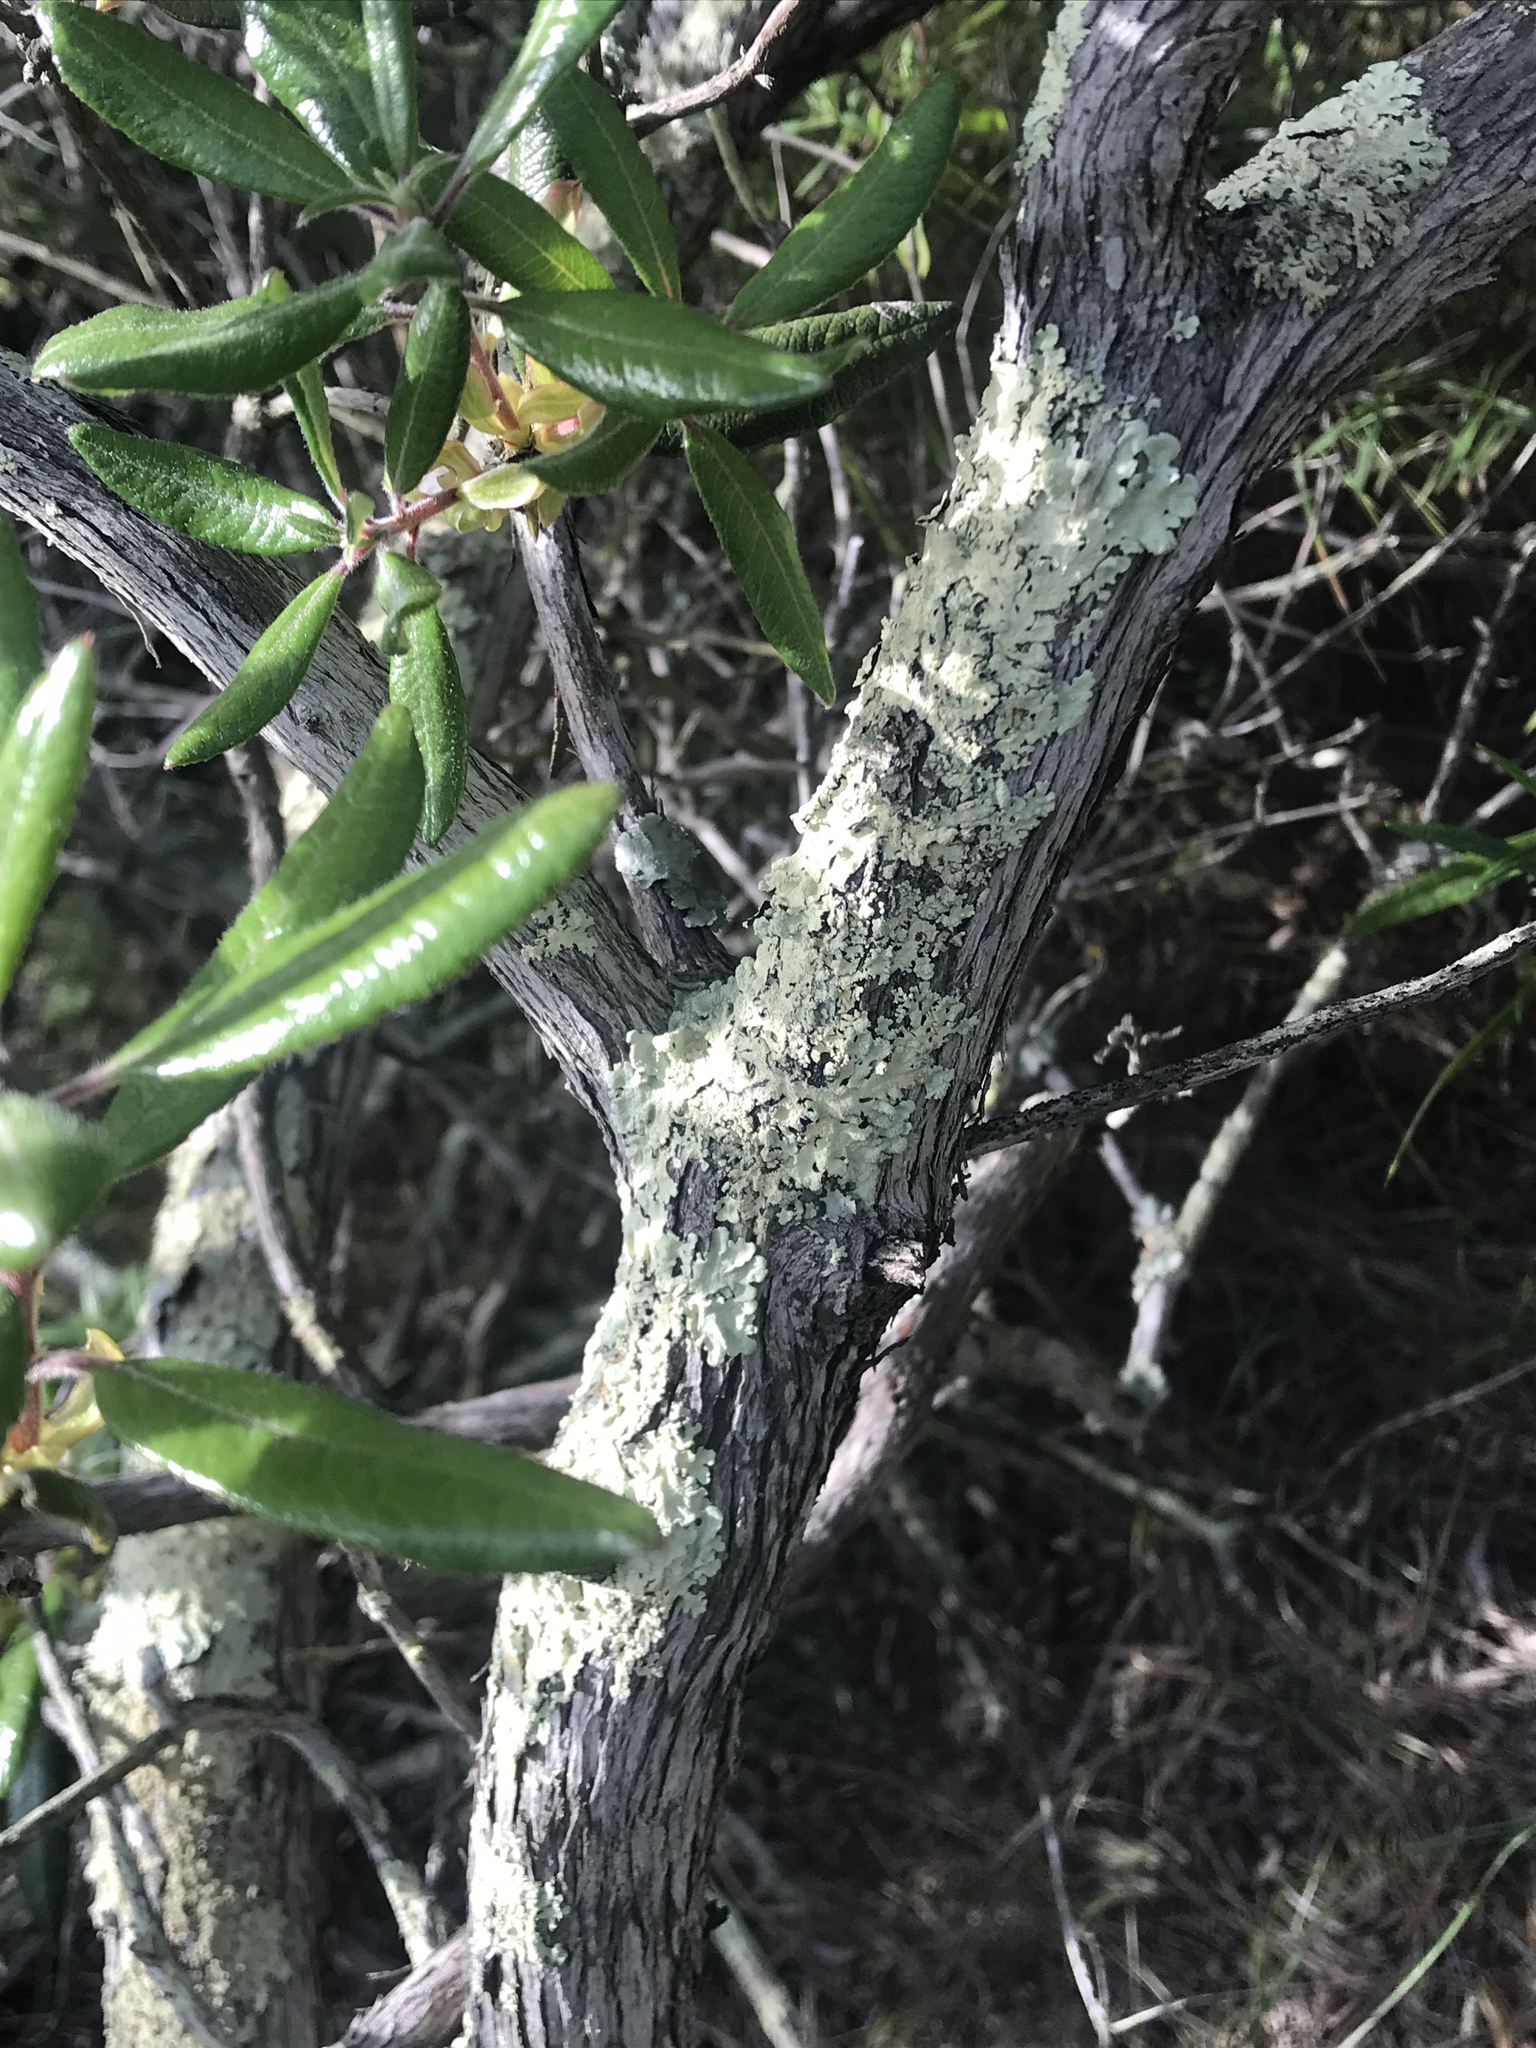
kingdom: Plantae
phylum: Tracheophyta
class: Magnoliopsida
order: Ericales
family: Ericaceae
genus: Comarostaphylis
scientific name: Comarostaphylis diversifolia
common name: Summer-holly
